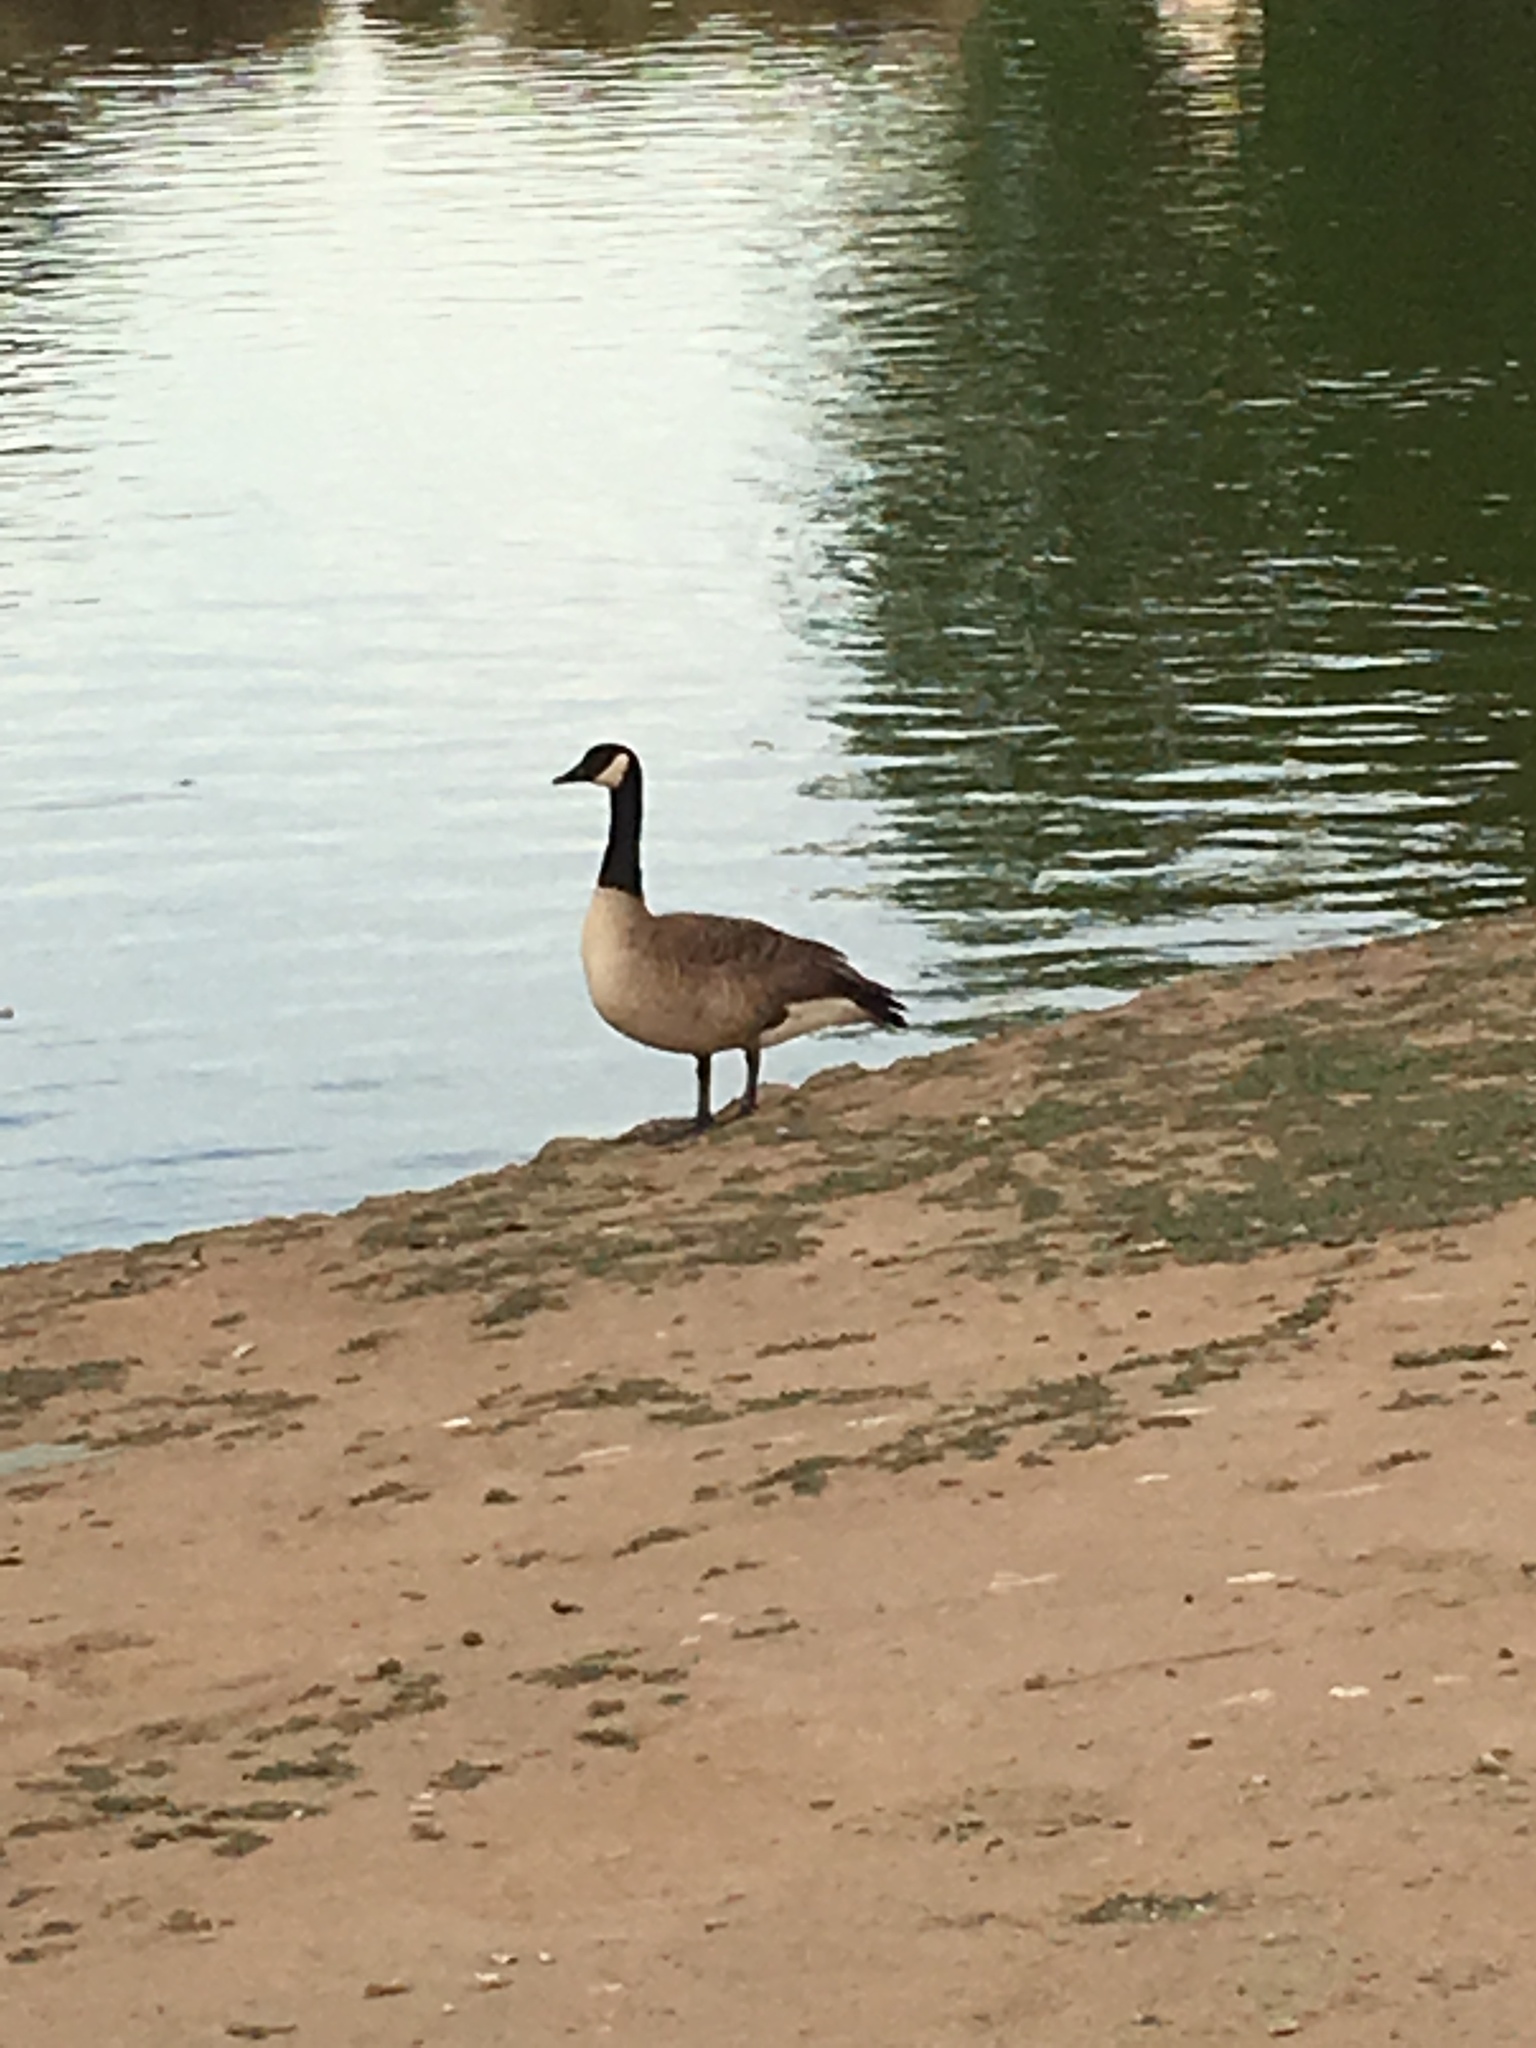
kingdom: Animalia
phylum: Chordata
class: Aves
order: Anseriformes
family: Anatidae
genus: Branta
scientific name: Branta canadensis
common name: Canada goose
